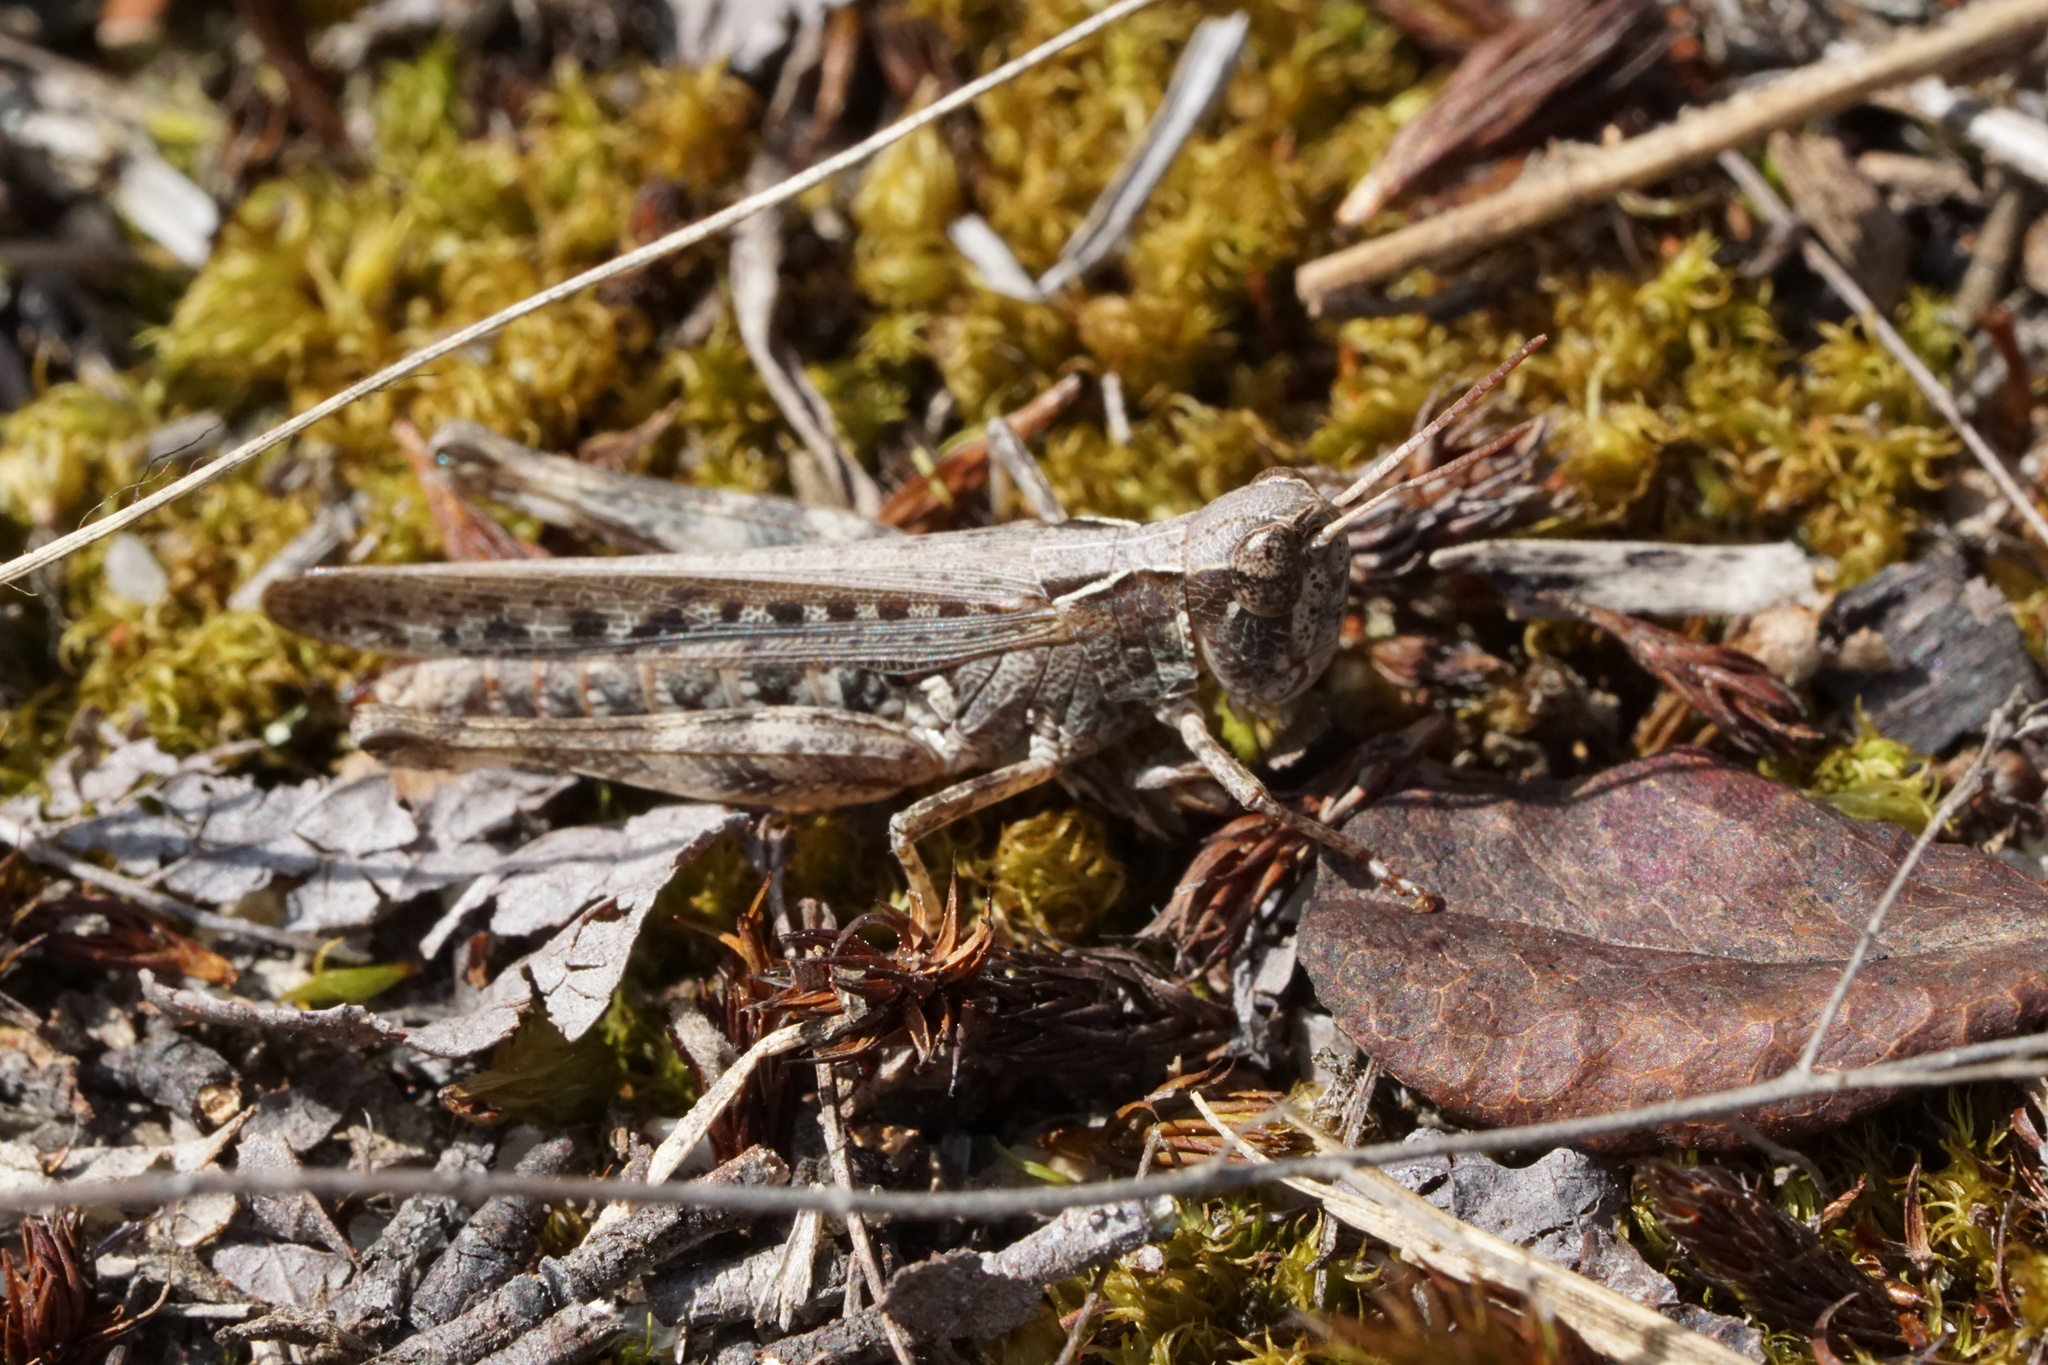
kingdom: Animalia
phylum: Arthropoda
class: Insecta
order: Orthoptera
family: Acrididae
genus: Orphulella
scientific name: Orphulella pelidna
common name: Spotted-wing grasshopper
